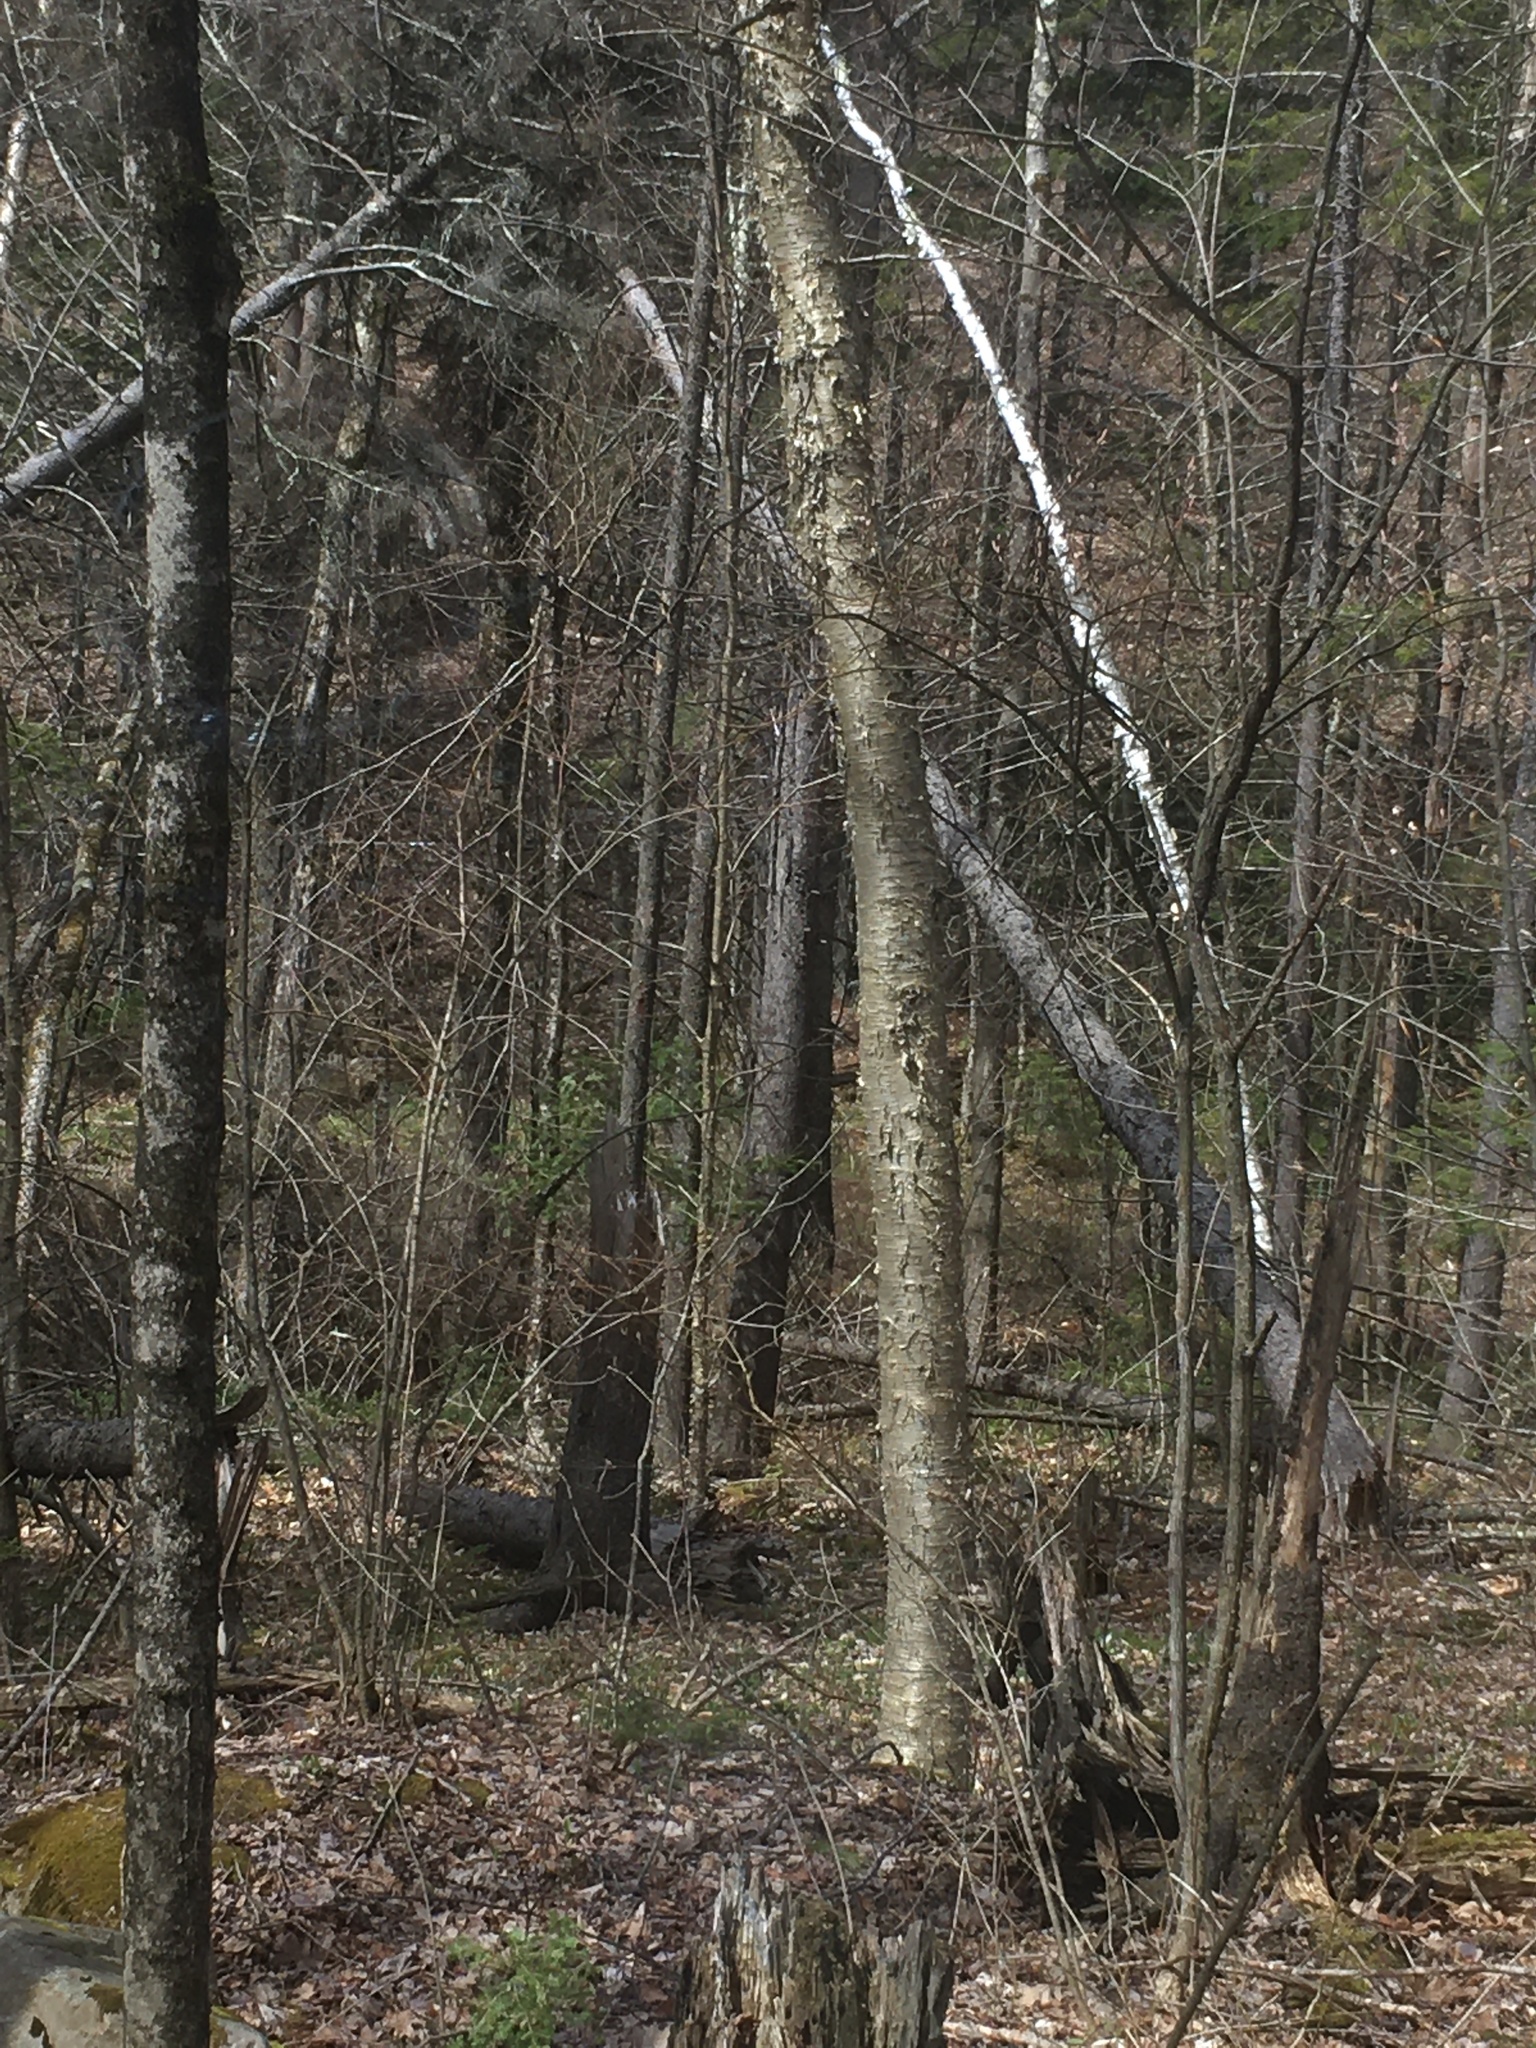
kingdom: Plantae
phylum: Tracheophyta
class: Magnoliopsida
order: Fagales
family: Betulaceae
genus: Betula
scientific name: Betula alleghaniensis
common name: Yellow birch
